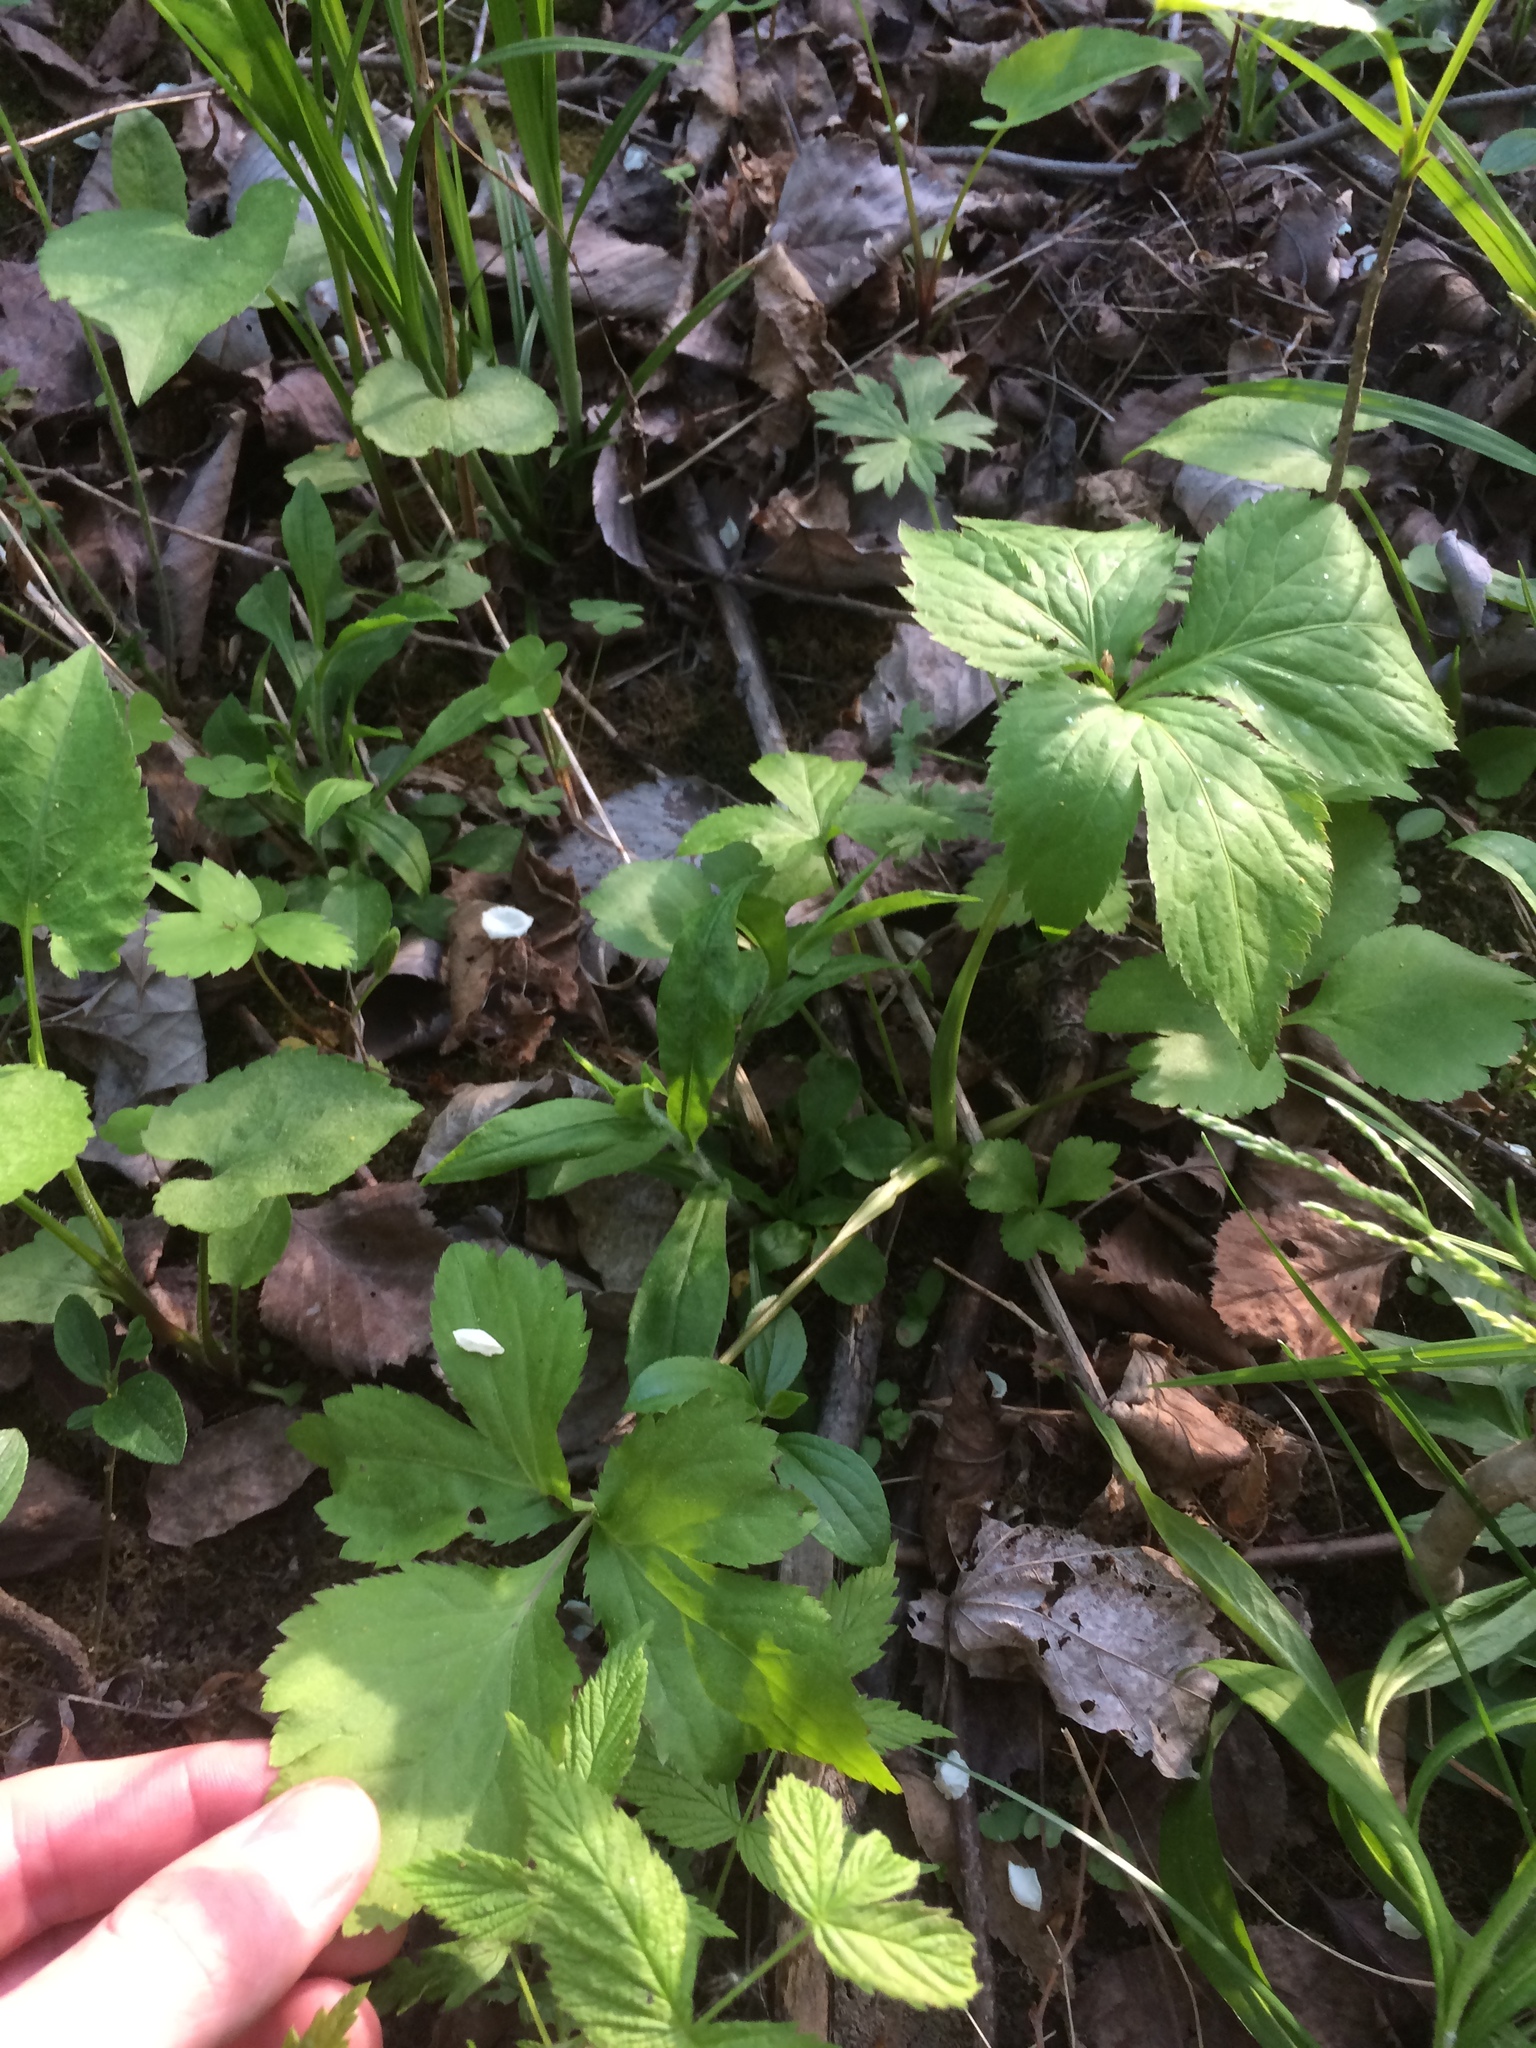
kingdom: Plantae
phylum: Tracheophyta
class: Magnoliopsida
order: Apiales
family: Apiaceae
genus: Cryptotaenia
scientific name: Cryptotaenia canadensis
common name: Honewort
